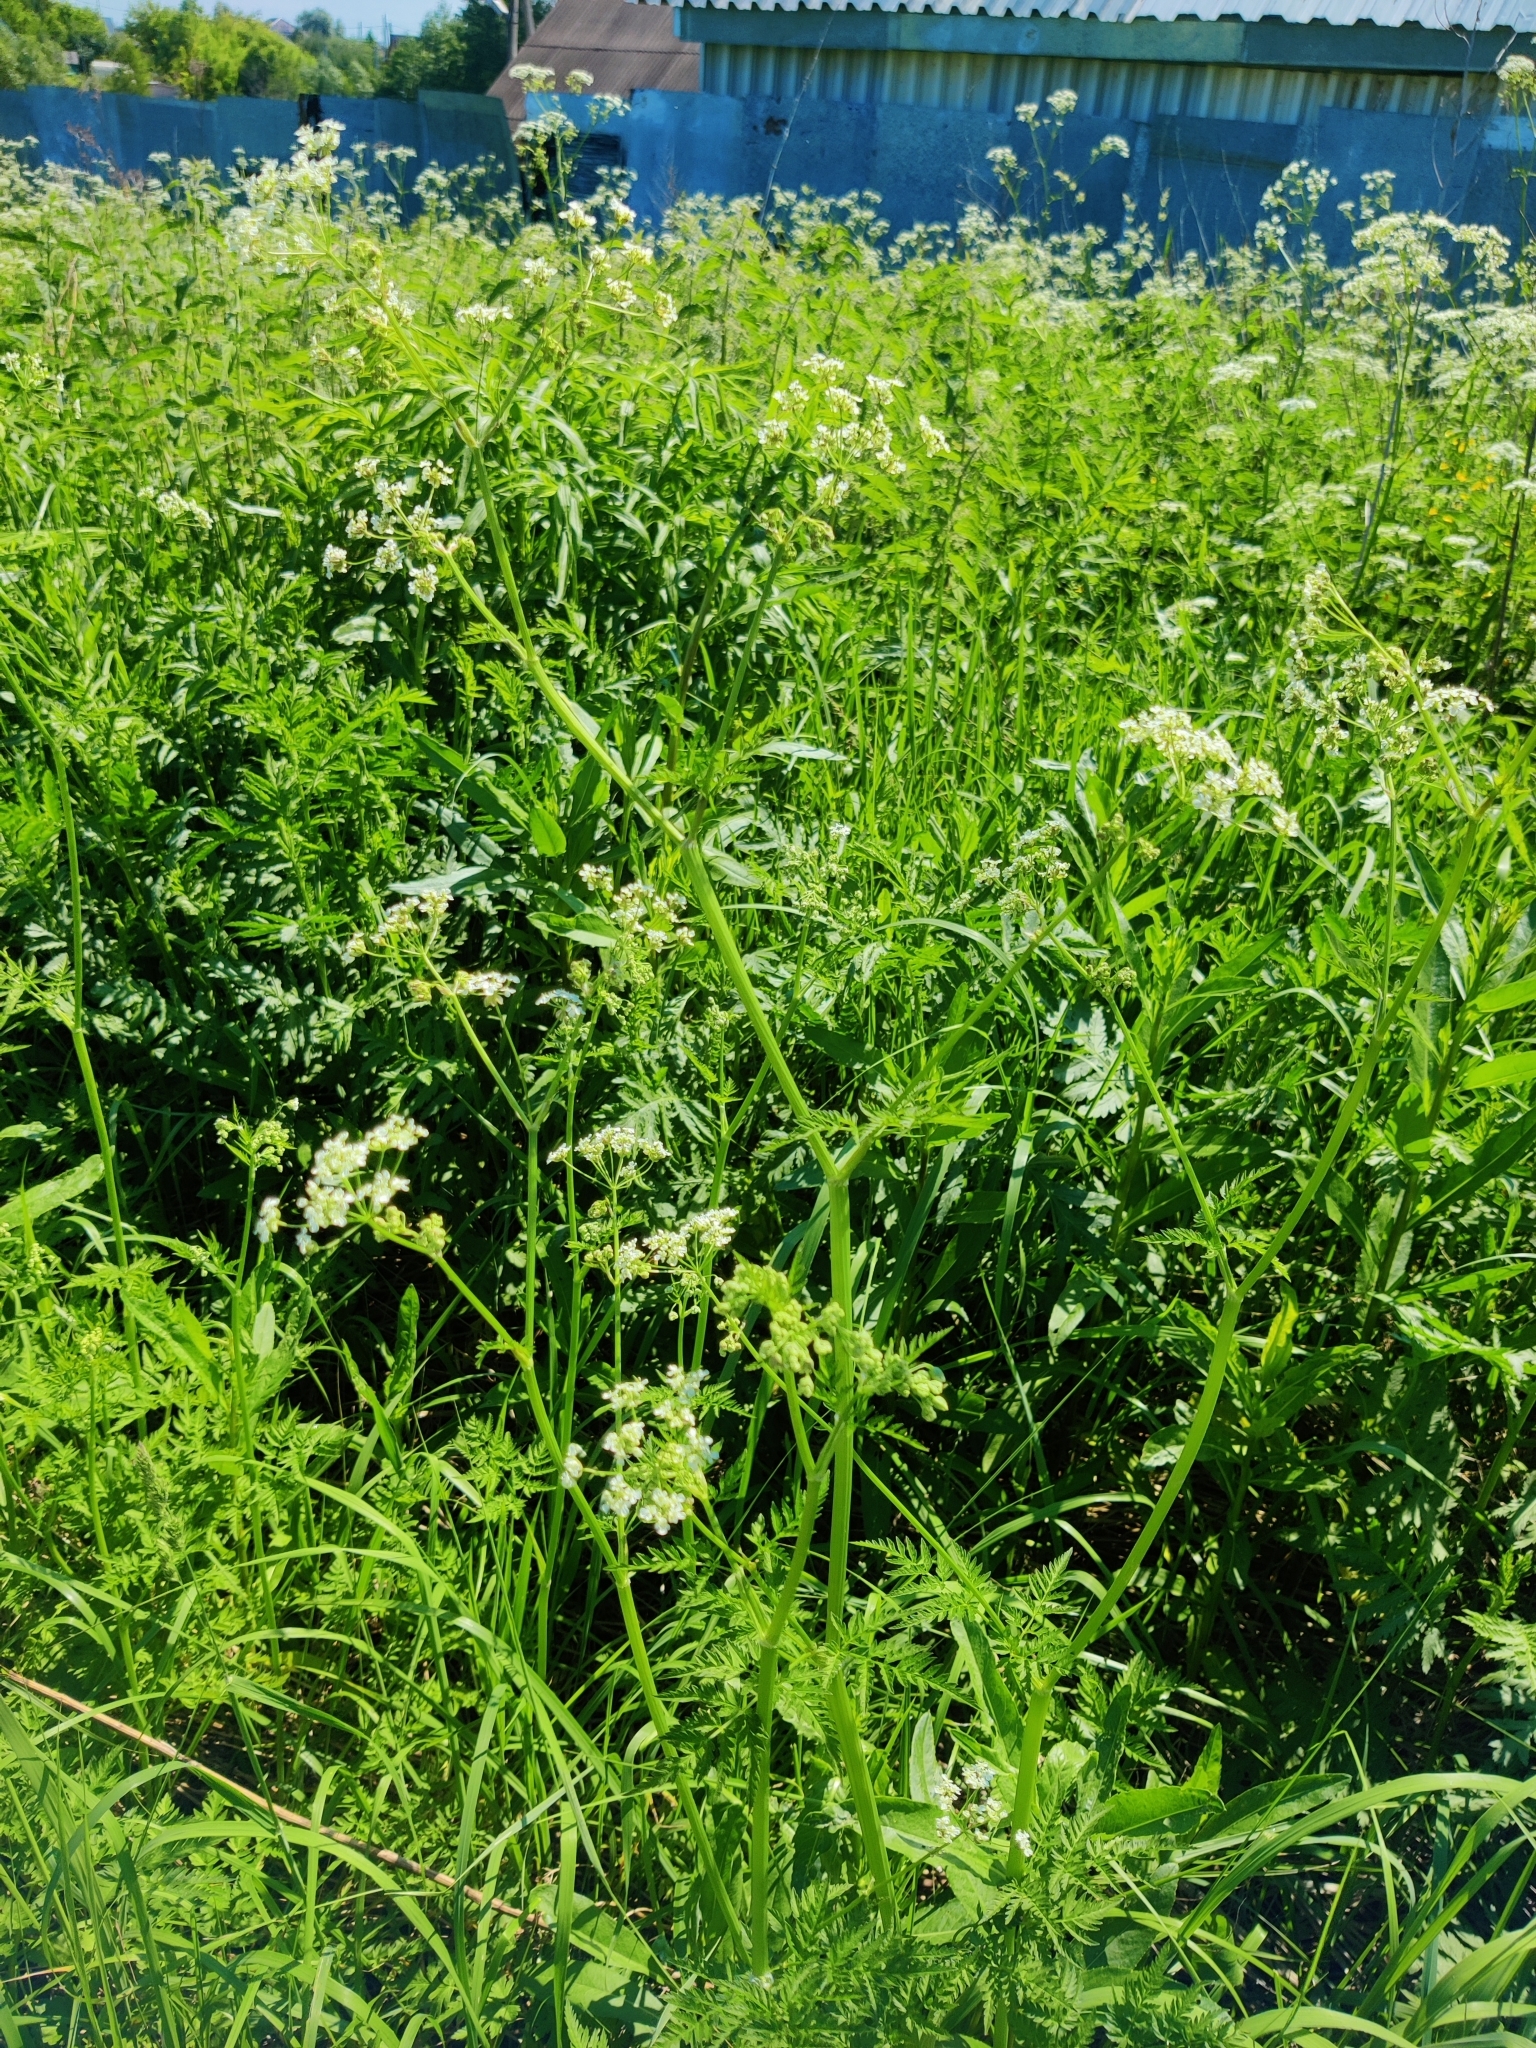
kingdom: Plantae
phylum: Tracheophyta
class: Magnoliopsida
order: Apiales
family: Apiaceae
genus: Anthriscus
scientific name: Anthriscus sylvestris
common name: Cow parsley
